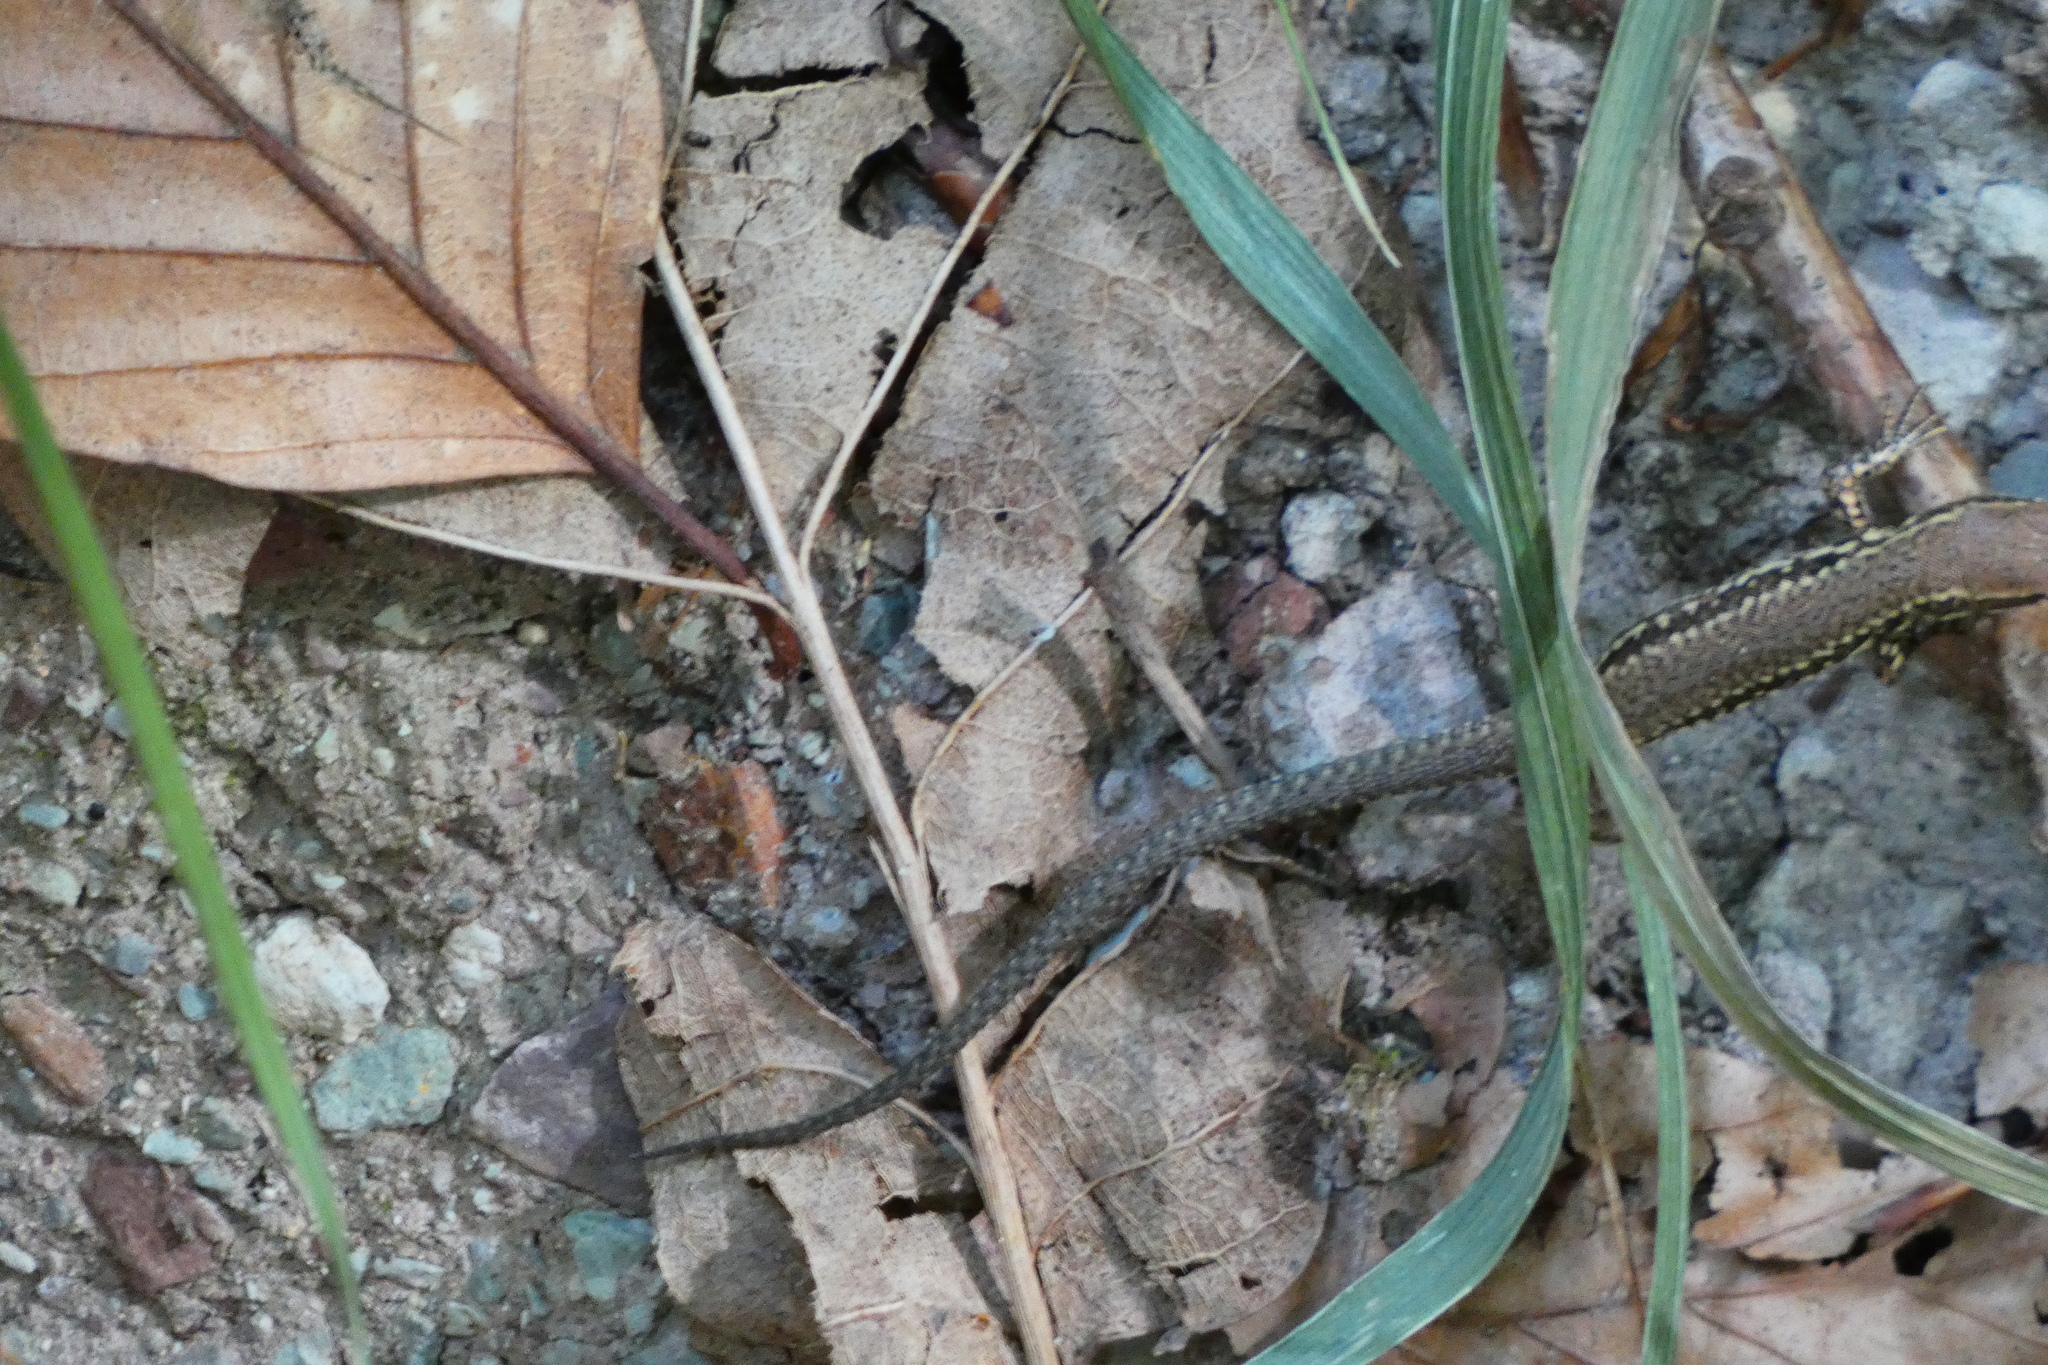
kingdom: Animalia
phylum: Chordata
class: Squamata
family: Lacertidae
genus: Podarcis
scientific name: Podarcis muralis
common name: Common wall lizard
